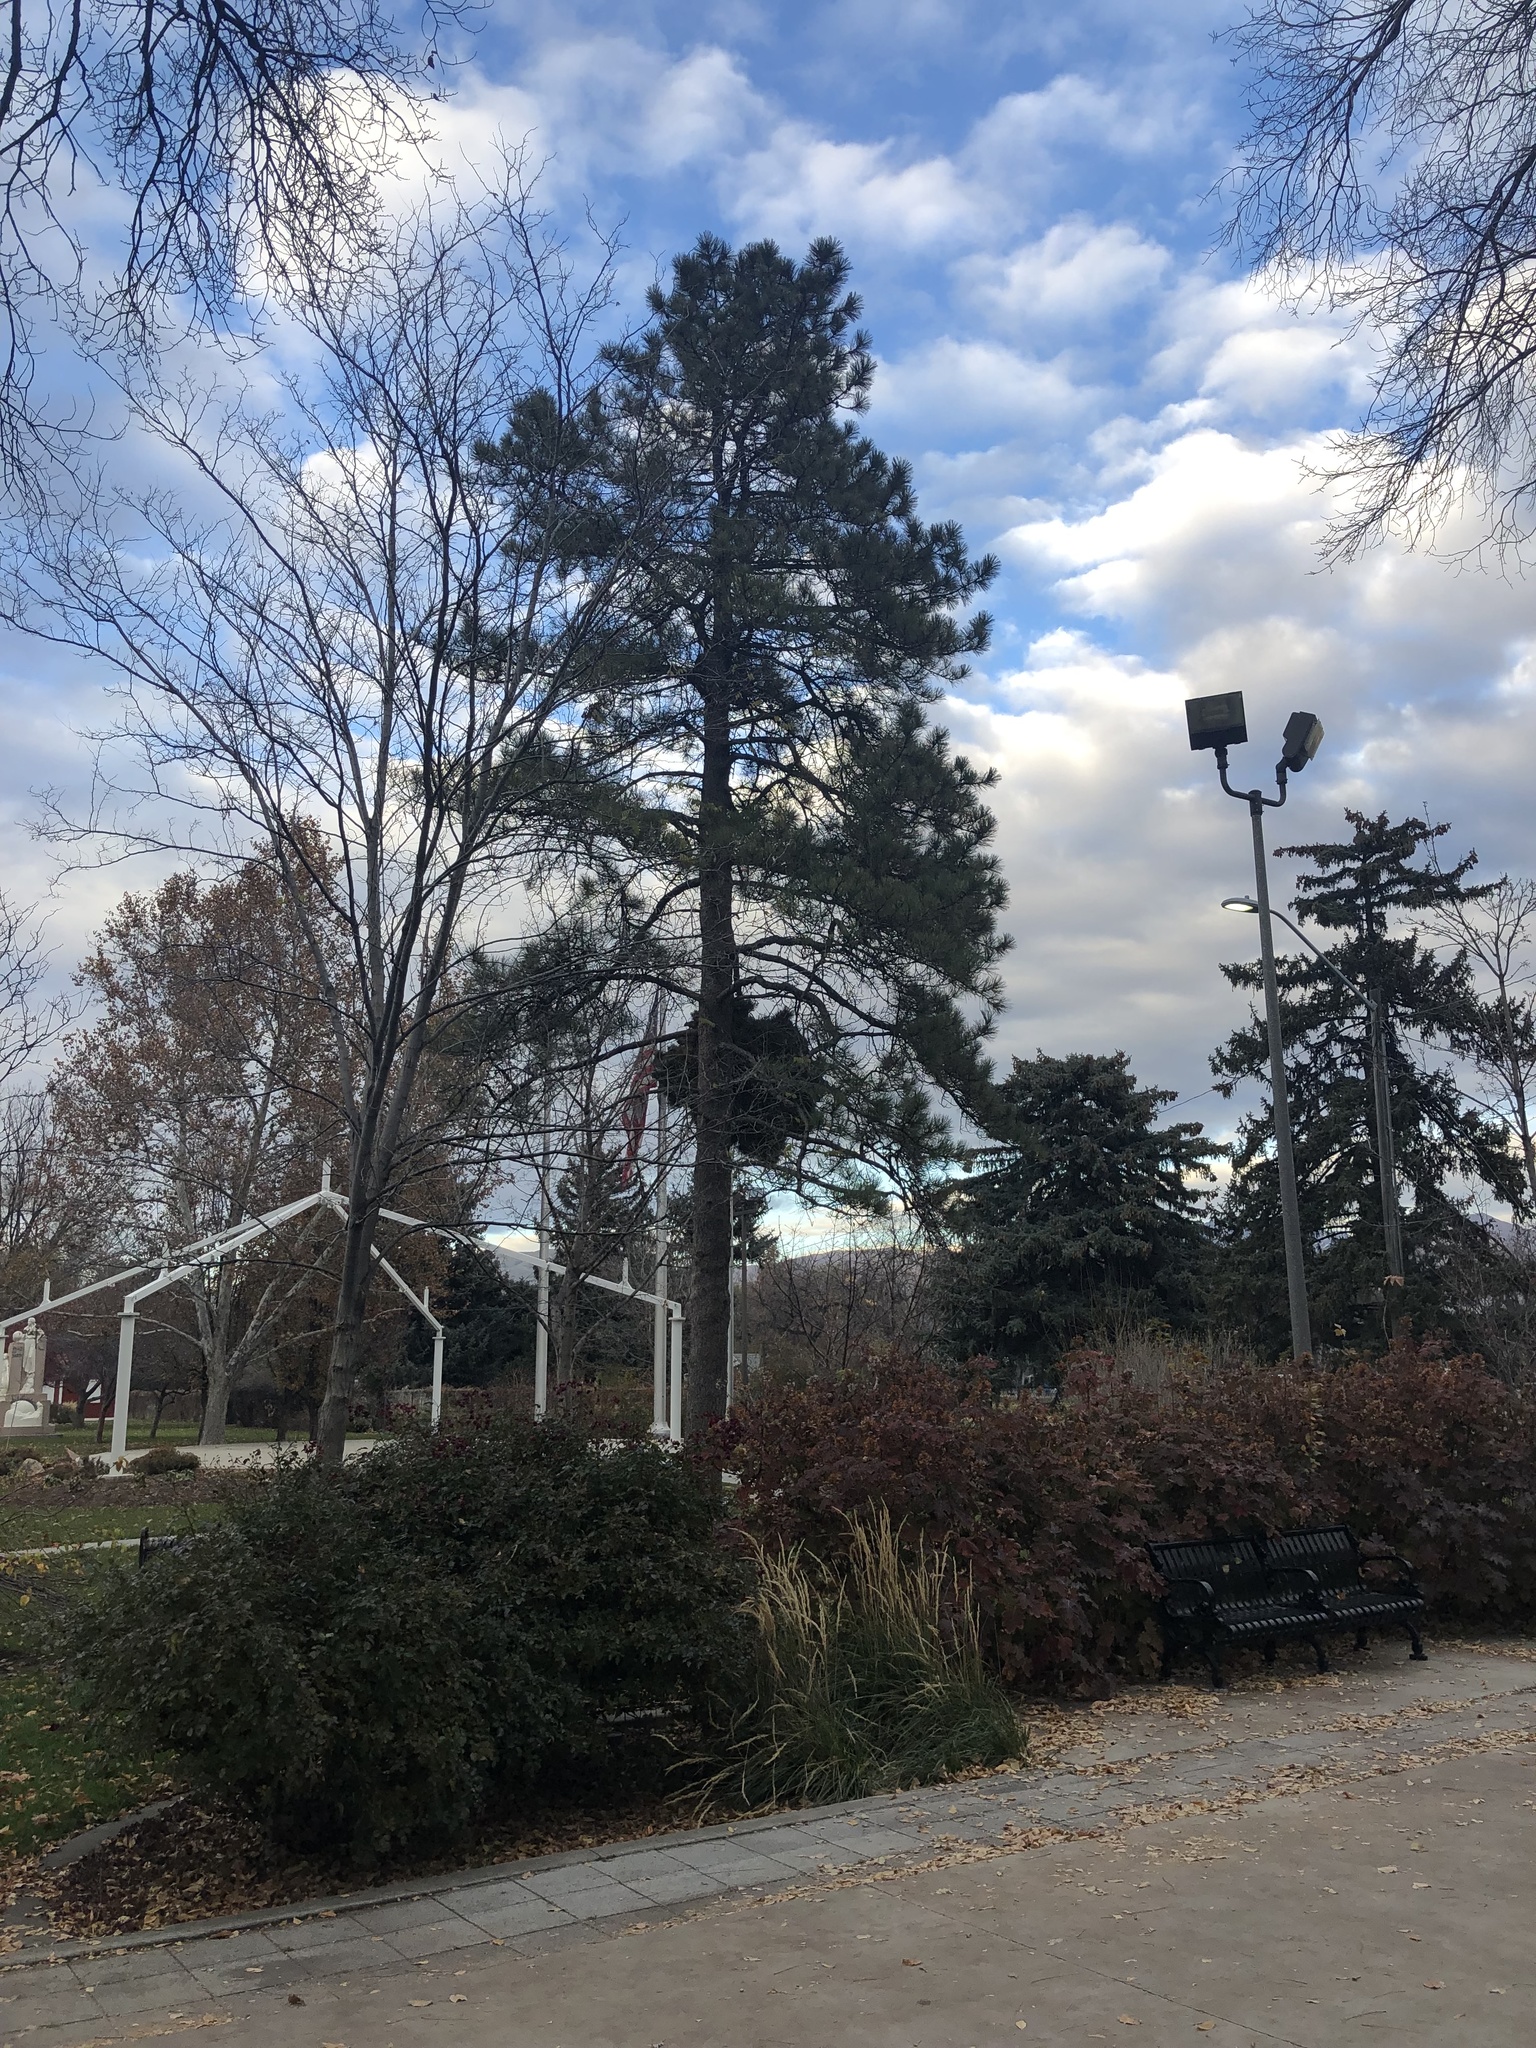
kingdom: Animalia
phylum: Chordata
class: Mammalia
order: Rodentia
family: Sciuridae
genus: Sciurus
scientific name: Sciurus niger
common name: Fox squirrel
